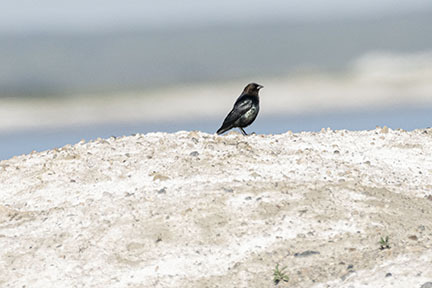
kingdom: Animalia
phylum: Chordata
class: Aves
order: Passeriformes
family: Icteridae
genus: Molothrus
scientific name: Molothrus ater
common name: Brown-headed cowbird
